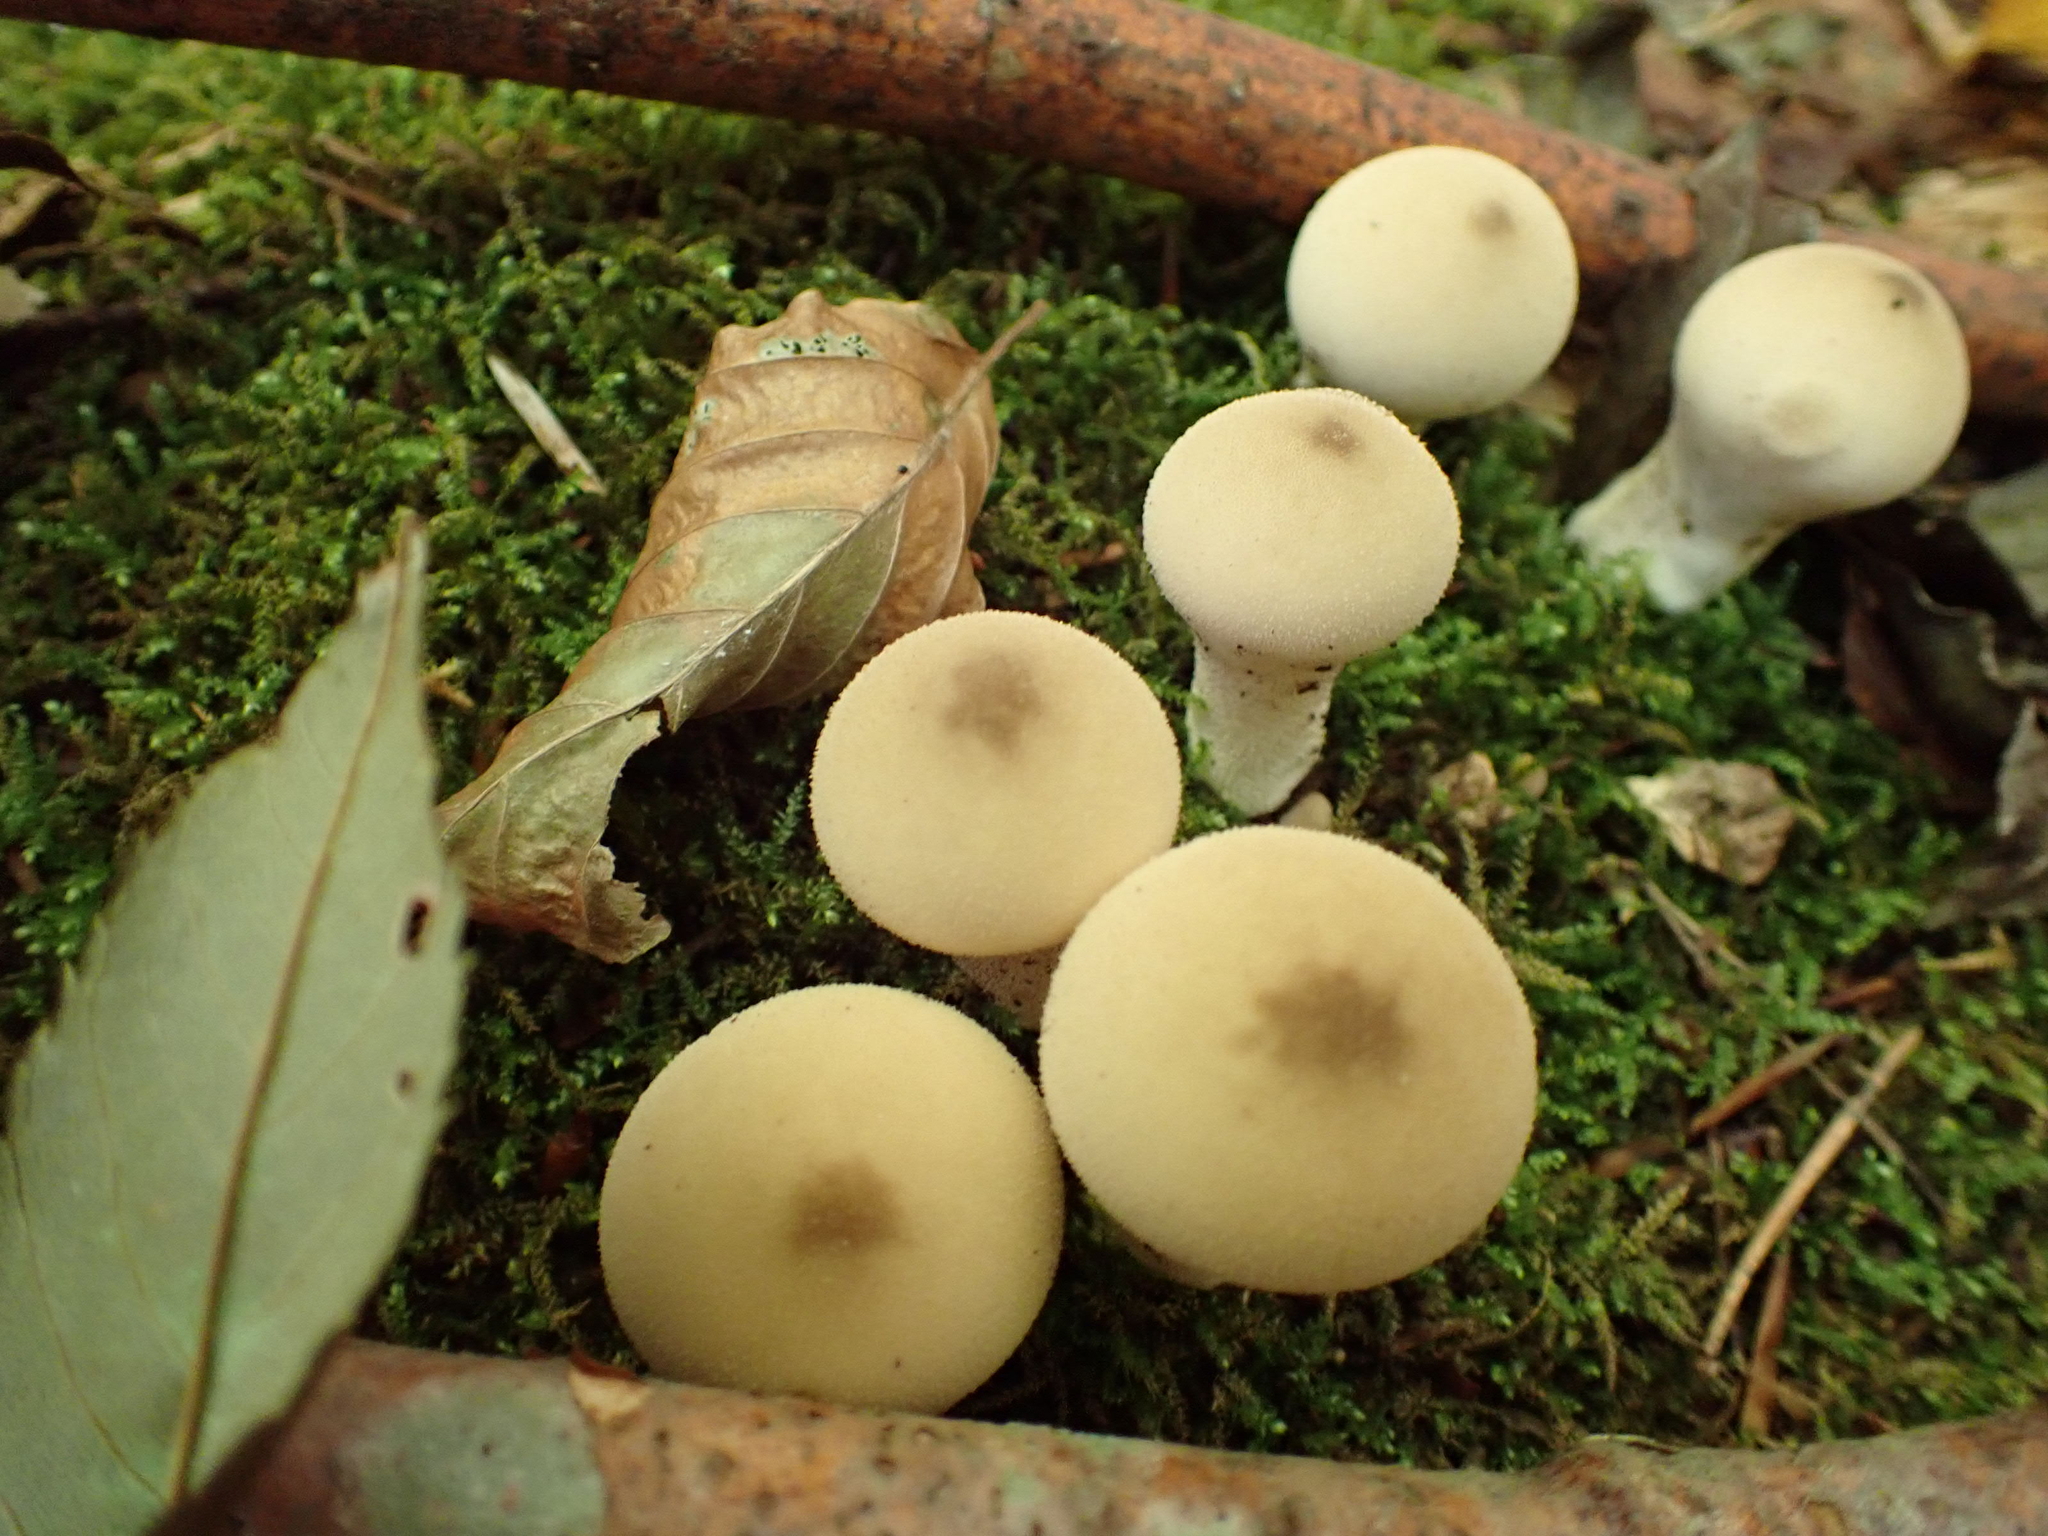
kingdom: Fungi
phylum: Basidiomycota
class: Agaricomycetes
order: Agaricales
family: Lycoperdaceae
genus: Apioperdon
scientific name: Apioperdon pyriforme
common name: Pear-shaped puffball
